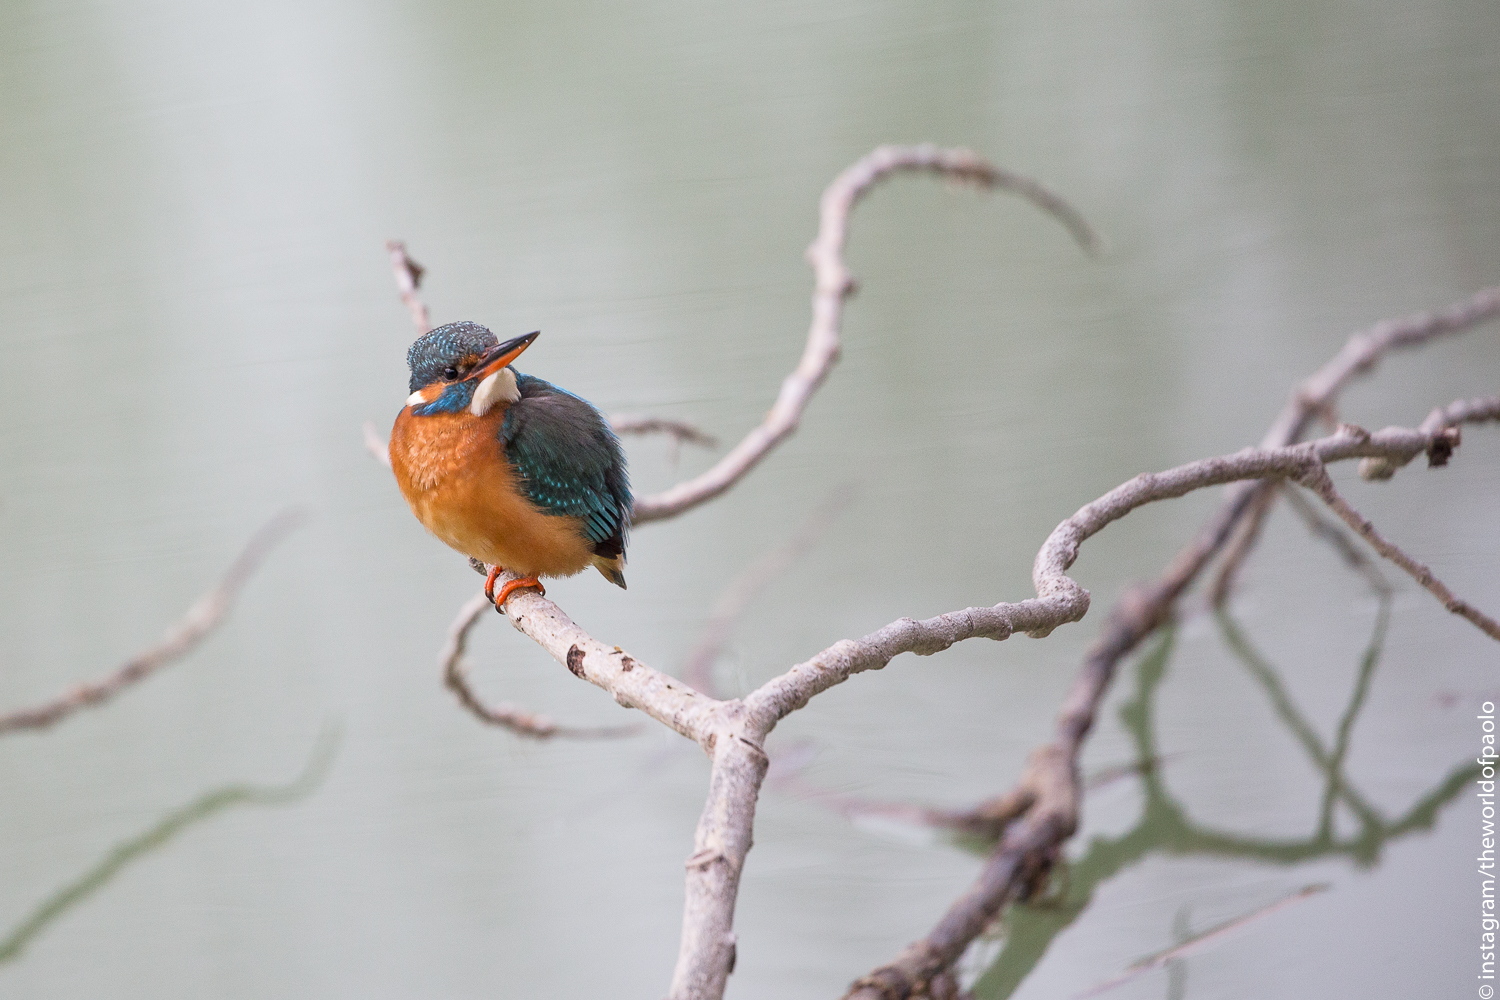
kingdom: Animalia
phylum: Chordata
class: Aves
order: Coraciiformes
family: Alcedinidae
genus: Alcedo
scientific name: Alcedo atthis
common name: Common kingfisher
